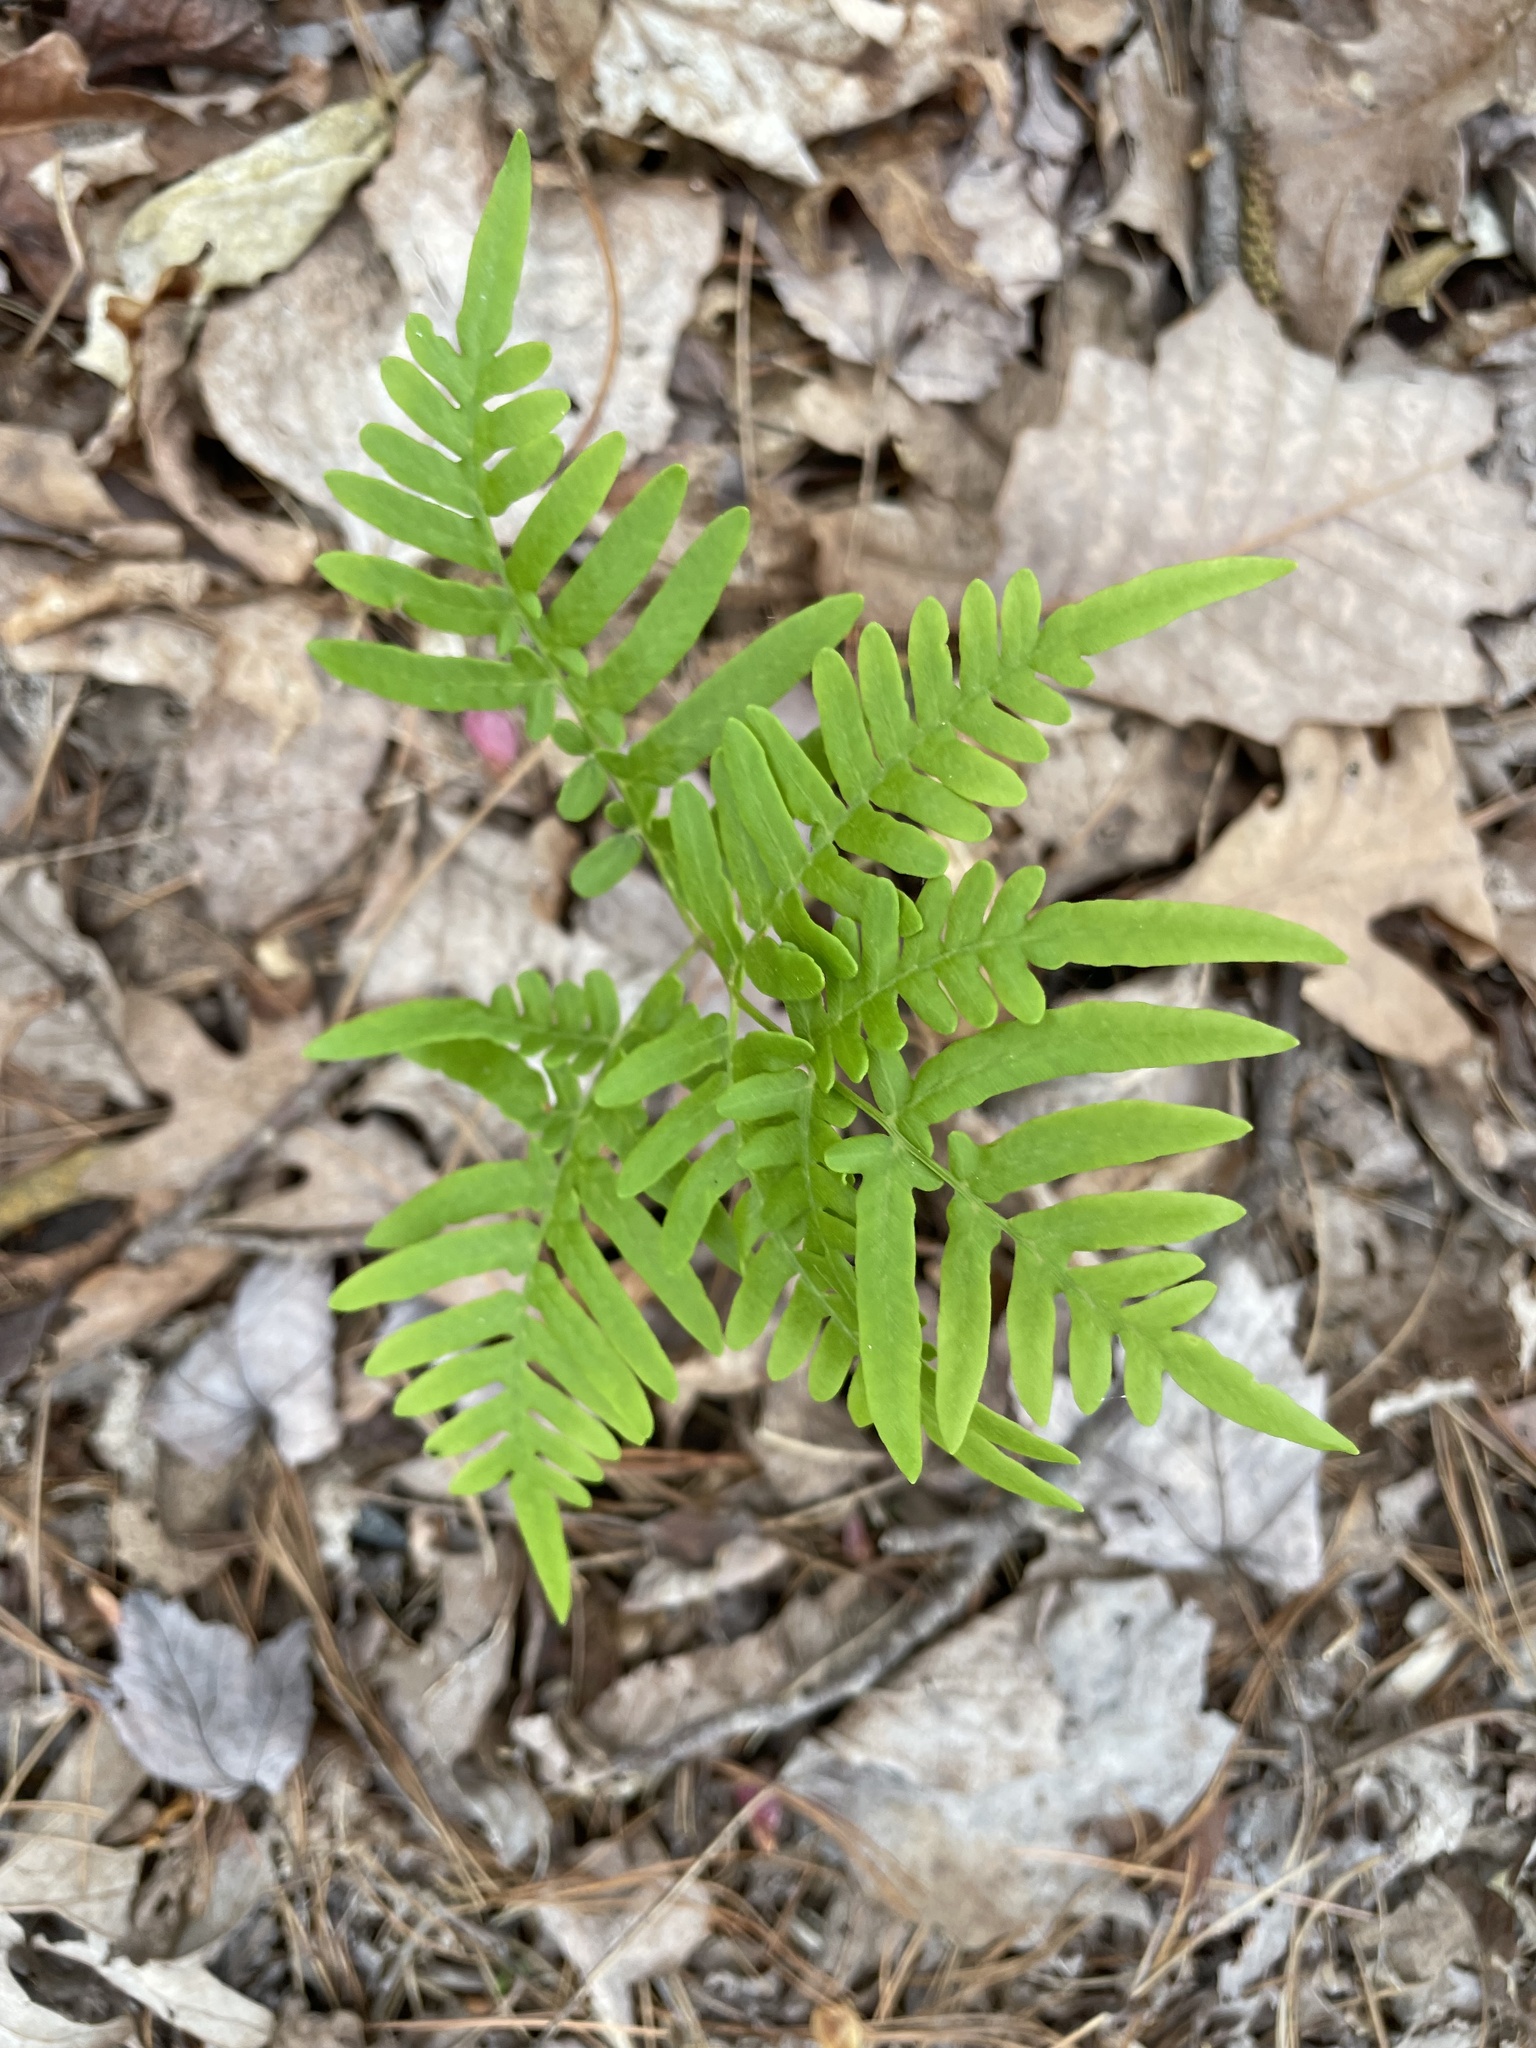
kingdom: Plantae
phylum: Tracheophyta
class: Polypodiopsida
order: Polypodiales
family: Dennstaedtiaceae
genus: Pteridium
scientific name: Pteridium
